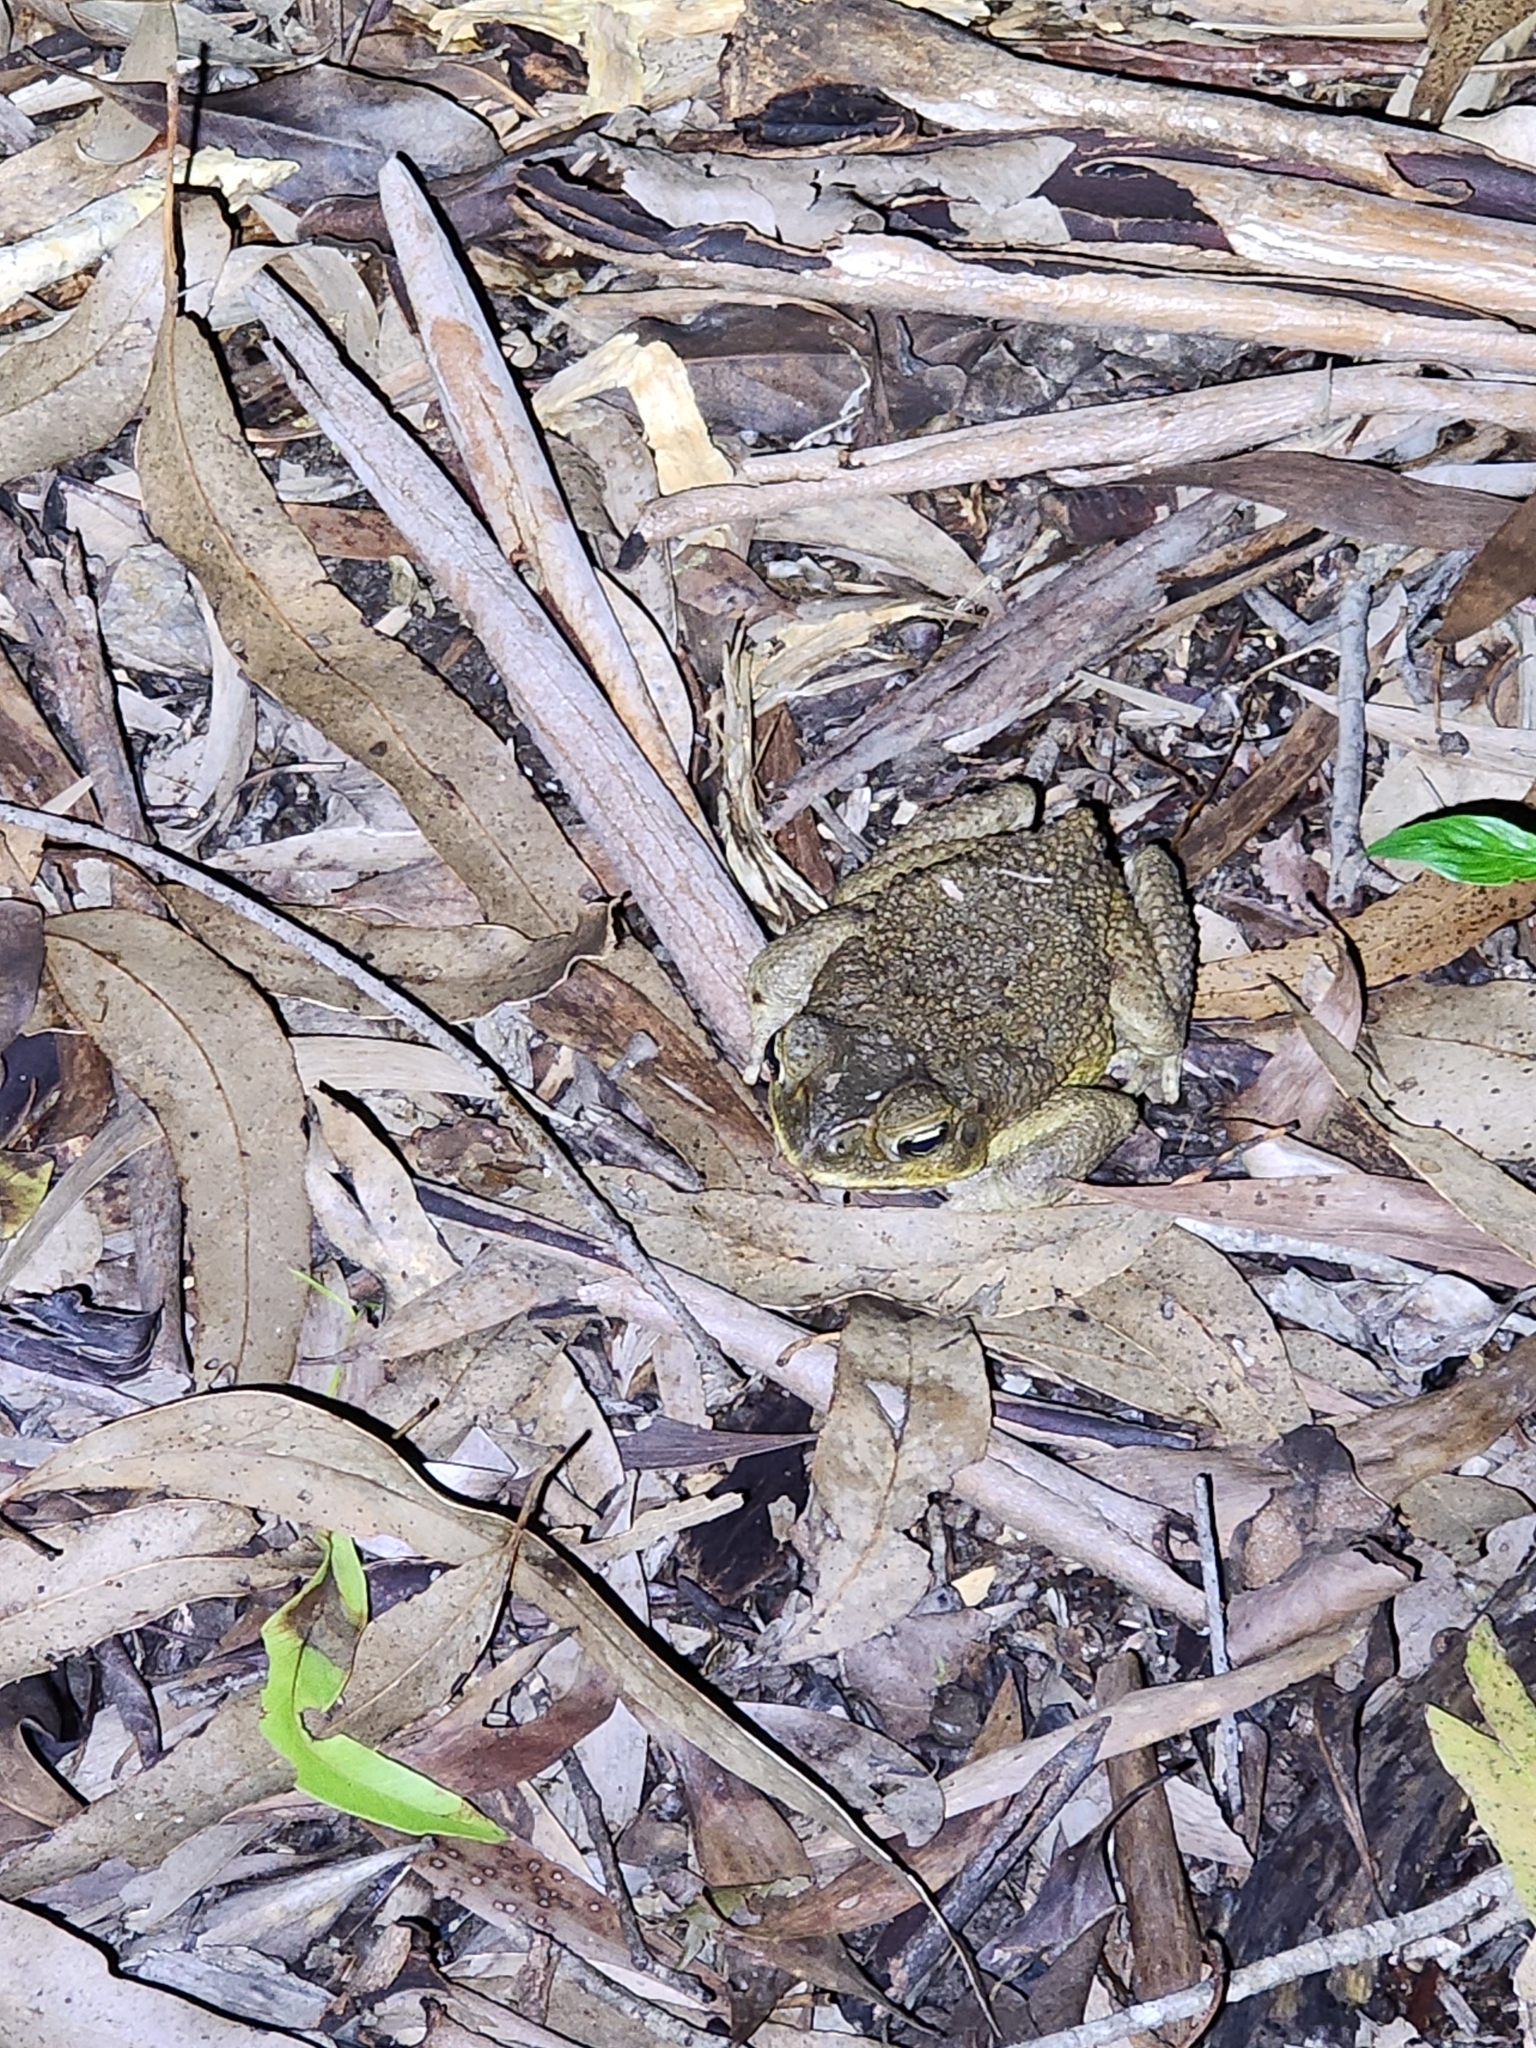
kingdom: Animalia
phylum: Chordata
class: Amphibia
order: Anura
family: Bufonidae
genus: Rhinella
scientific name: Rhinella marina
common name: Cane toad
